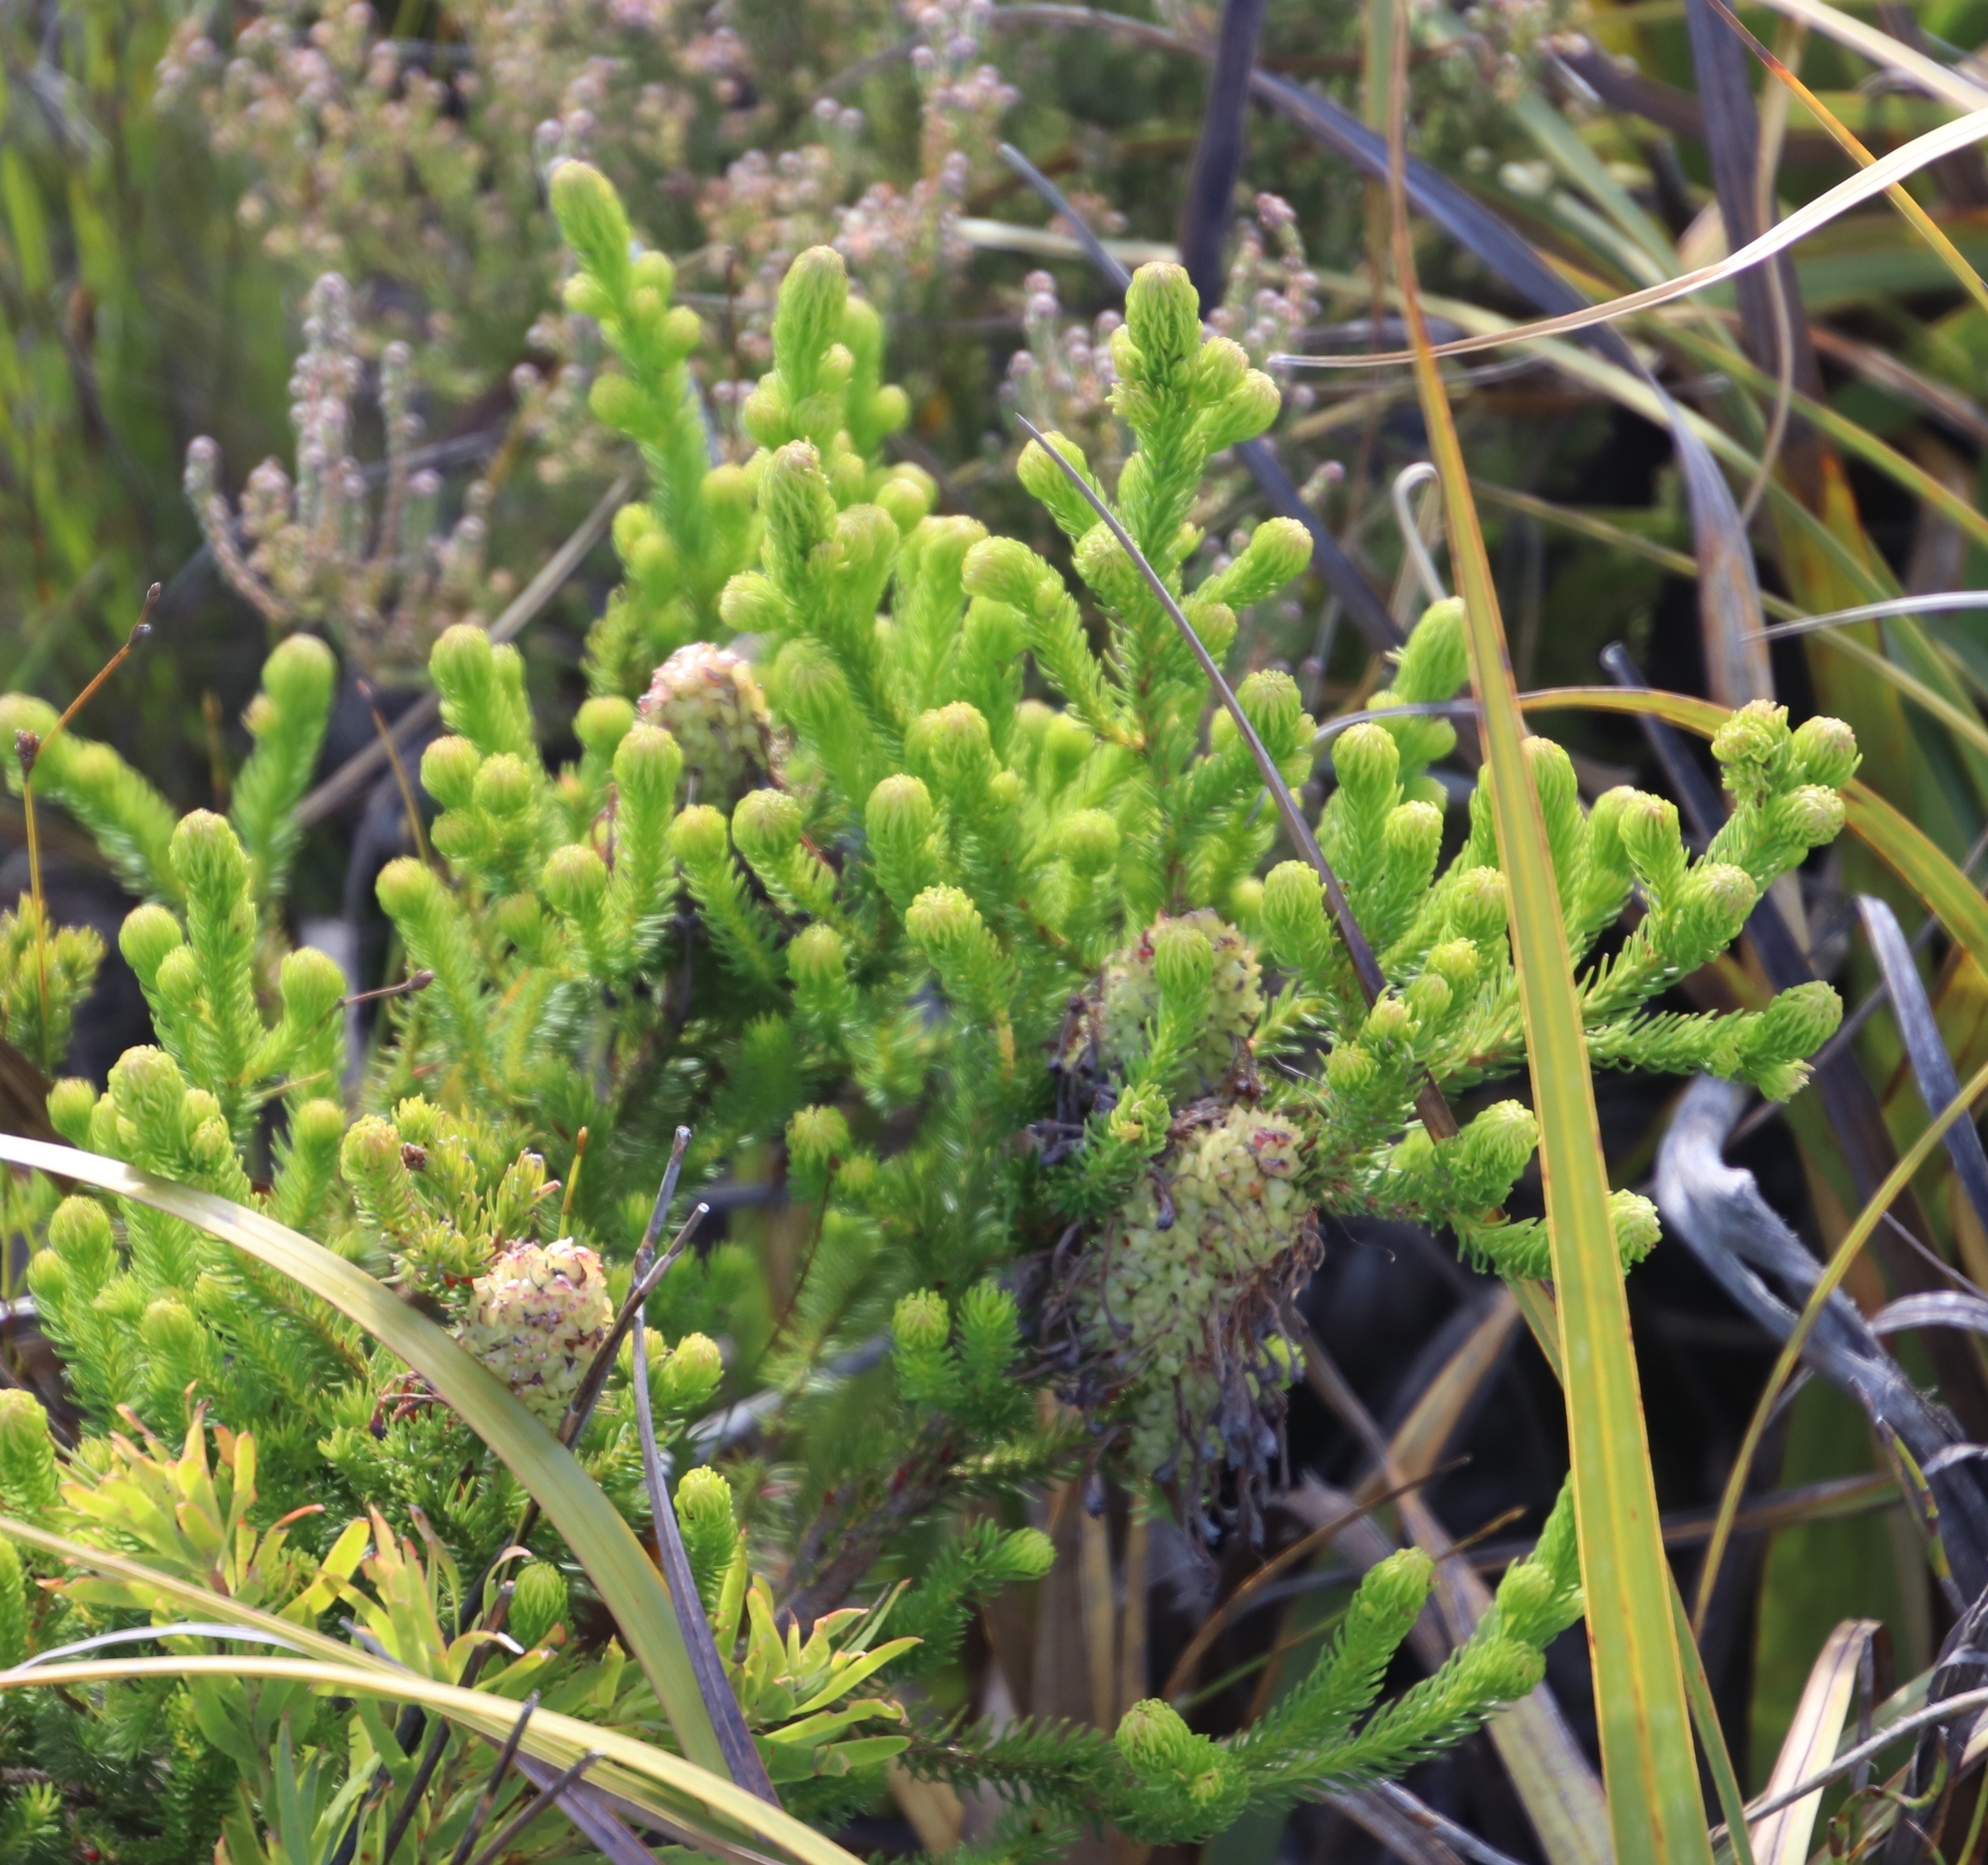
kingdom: Plantae
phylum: Tracheophyta
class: Magnoliopsida
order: Ericales
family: Ericaceae
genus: Erica
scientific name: Erica sessiliflora
